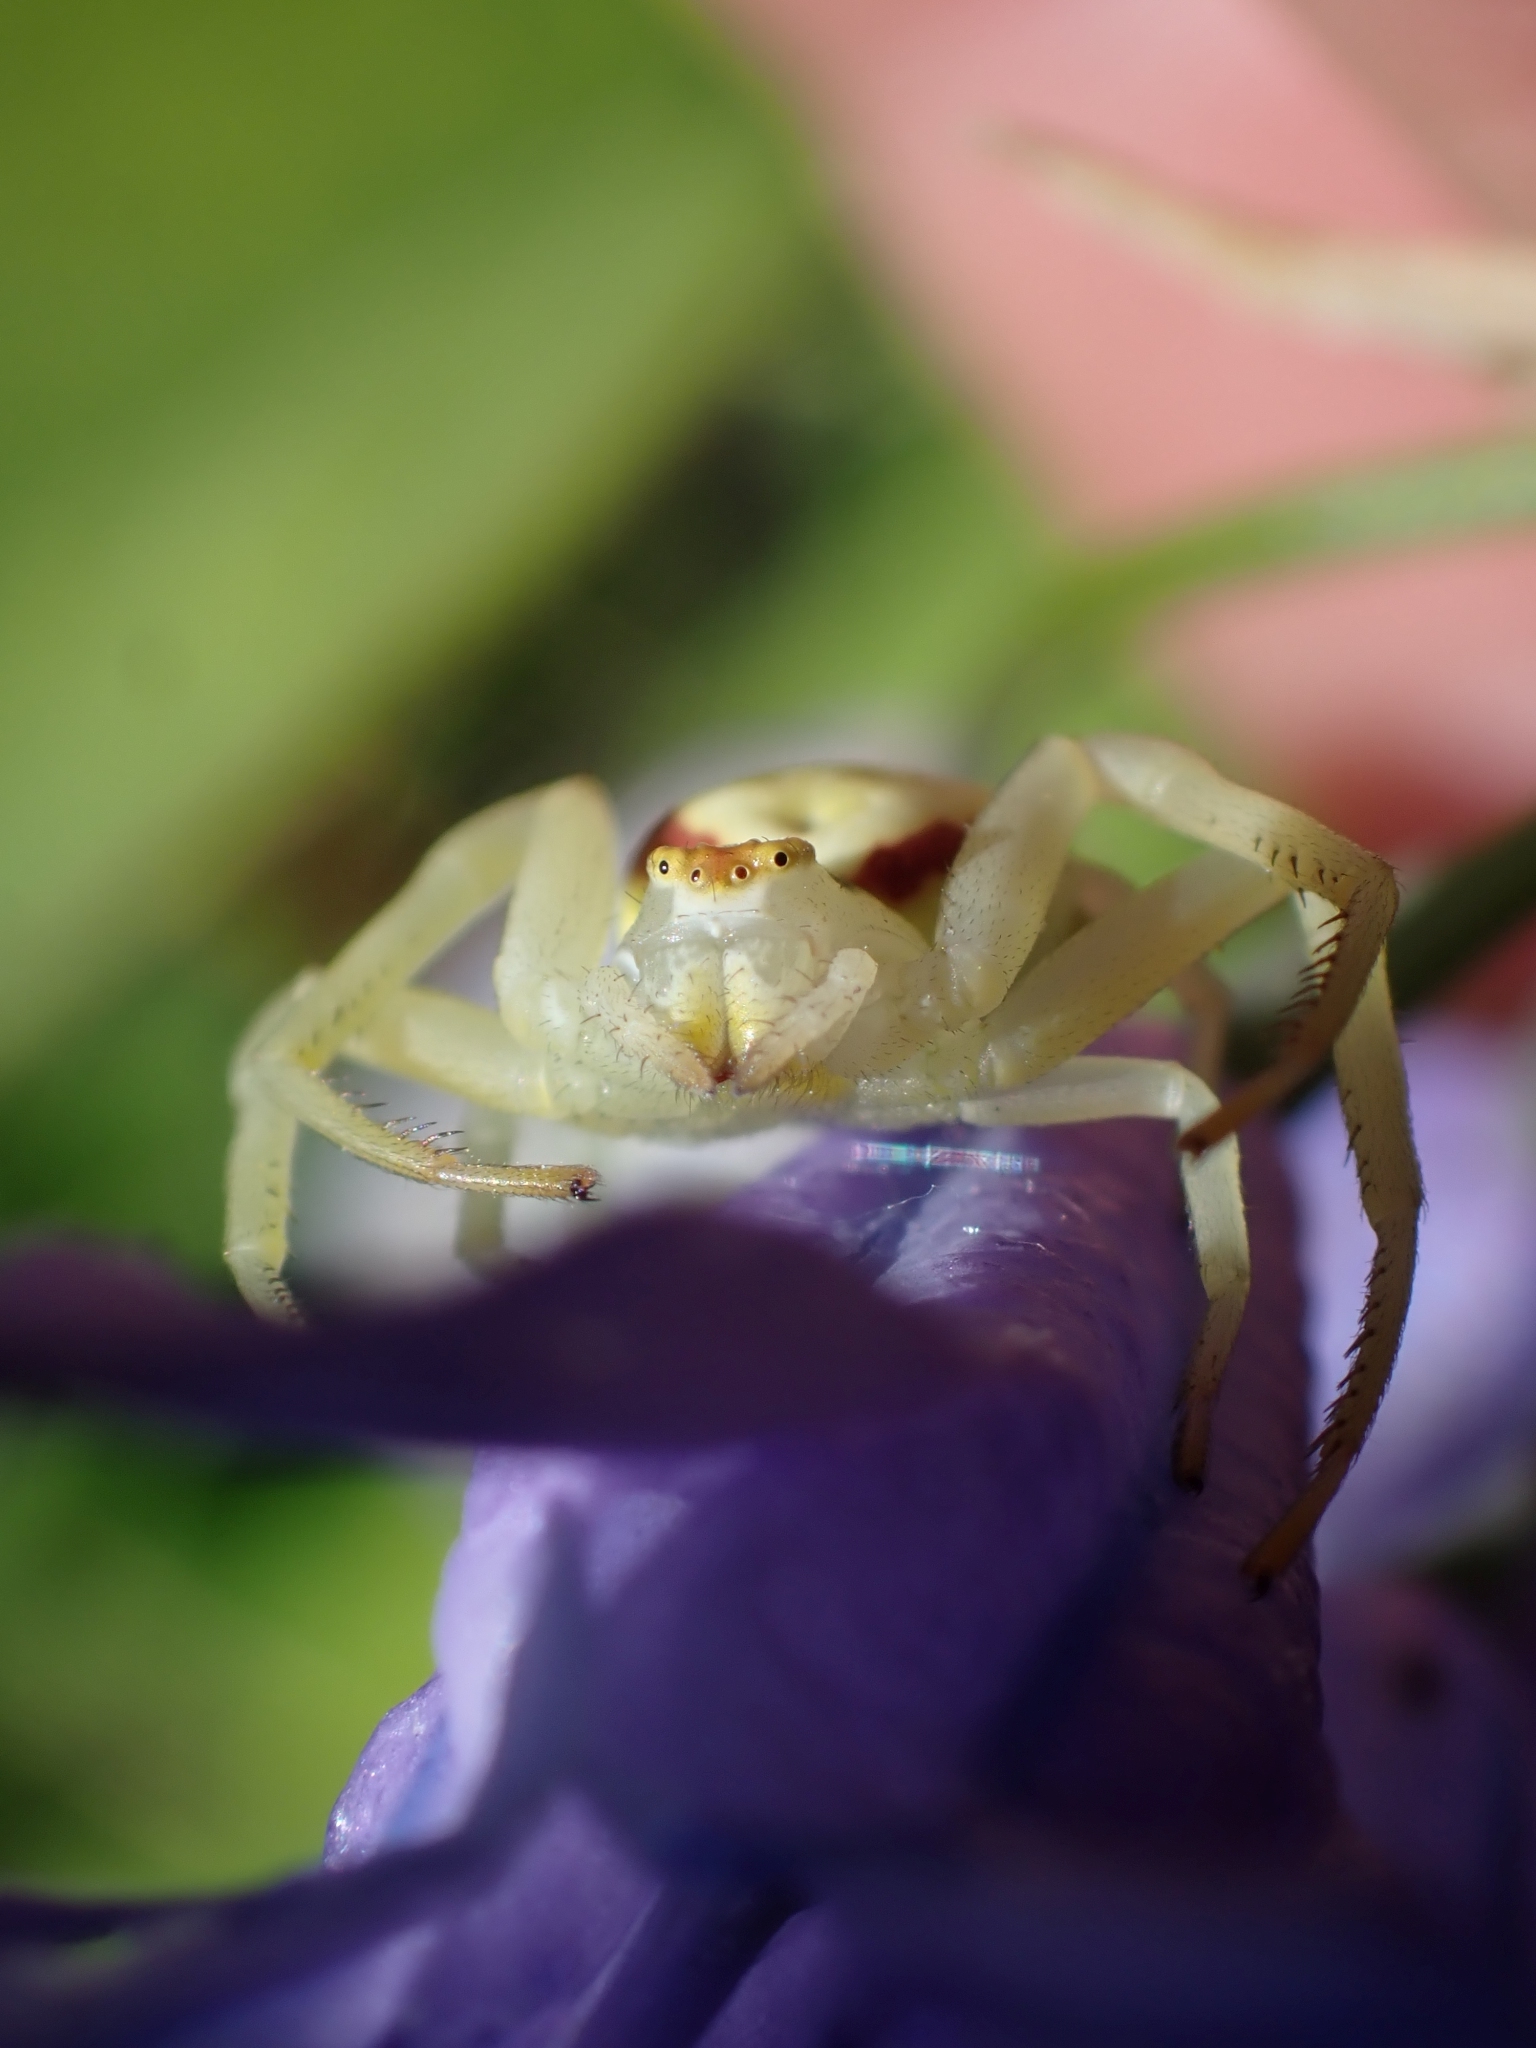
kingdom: Animalia
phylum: Arthropoda
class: Arachnida
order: Araneae
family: Thomisidae
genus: Misumena
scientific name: Misumena vatia
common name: Goldenrod crab spider
